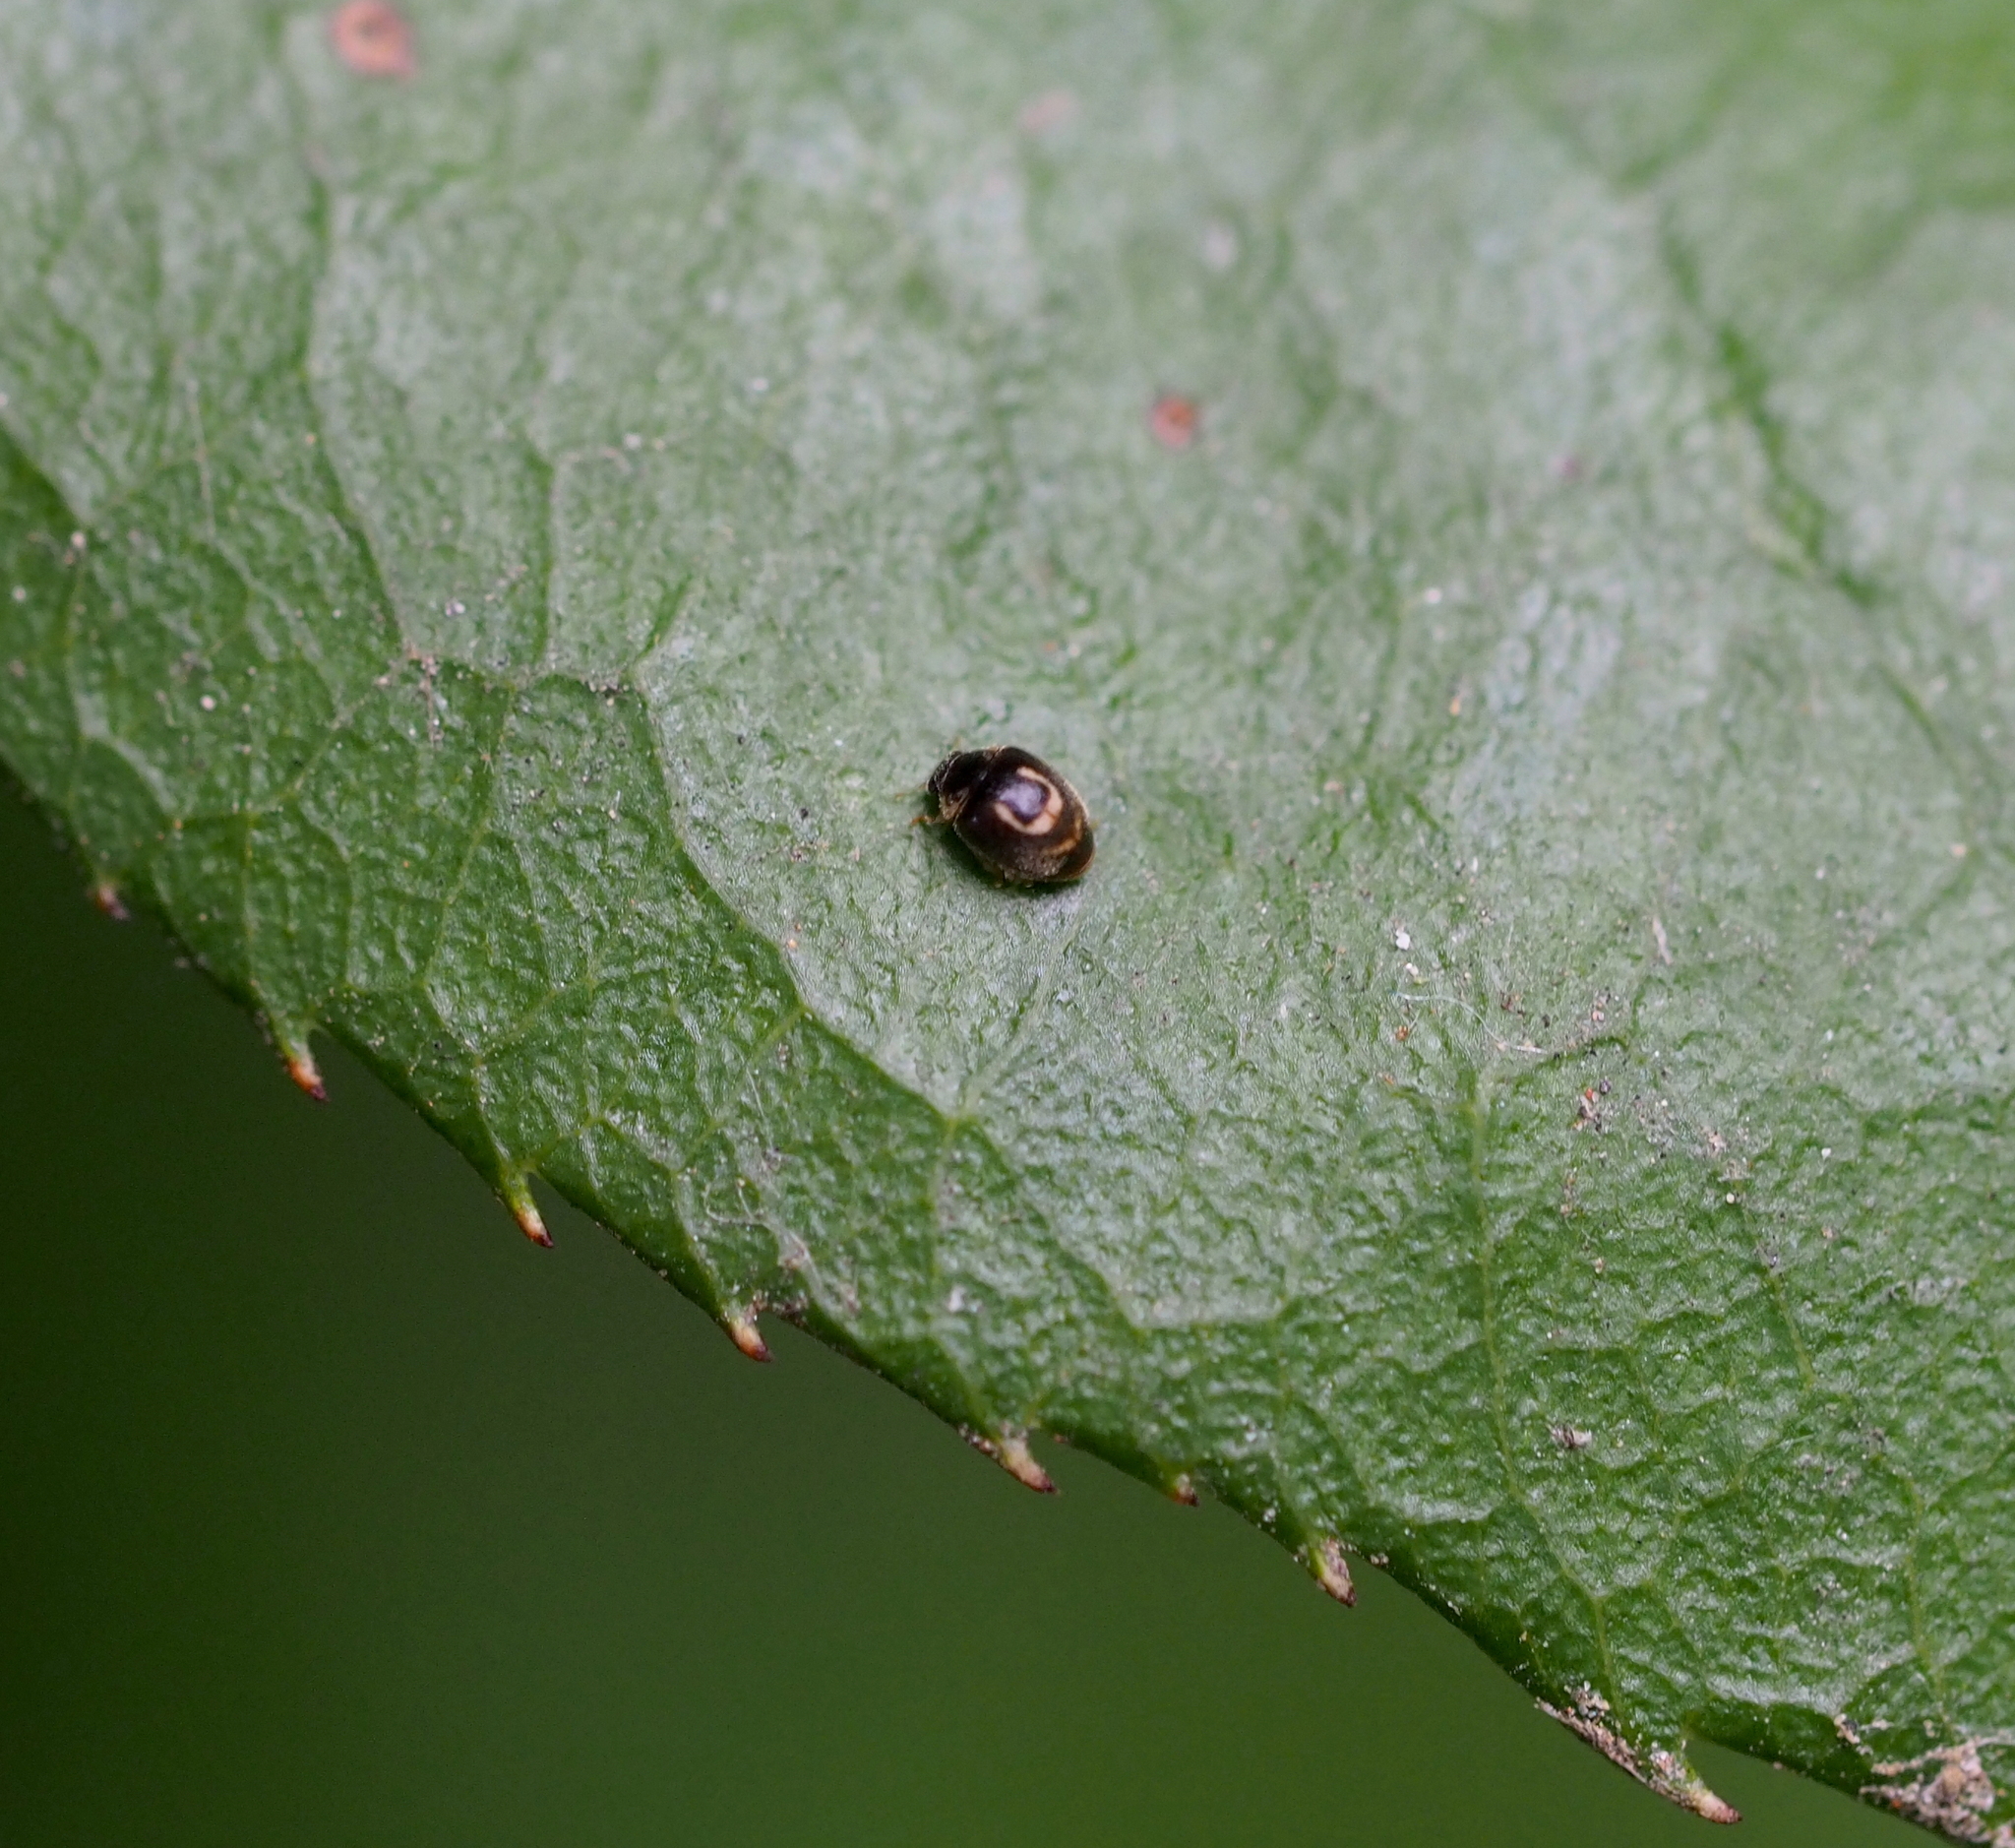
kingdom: Animalia
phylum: Arthropoda
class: Insecta
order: Coleoptera
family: Coccinellidae
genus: Clitostethus
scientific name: Clitostethus arcuatus
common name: Ladybird beetle
